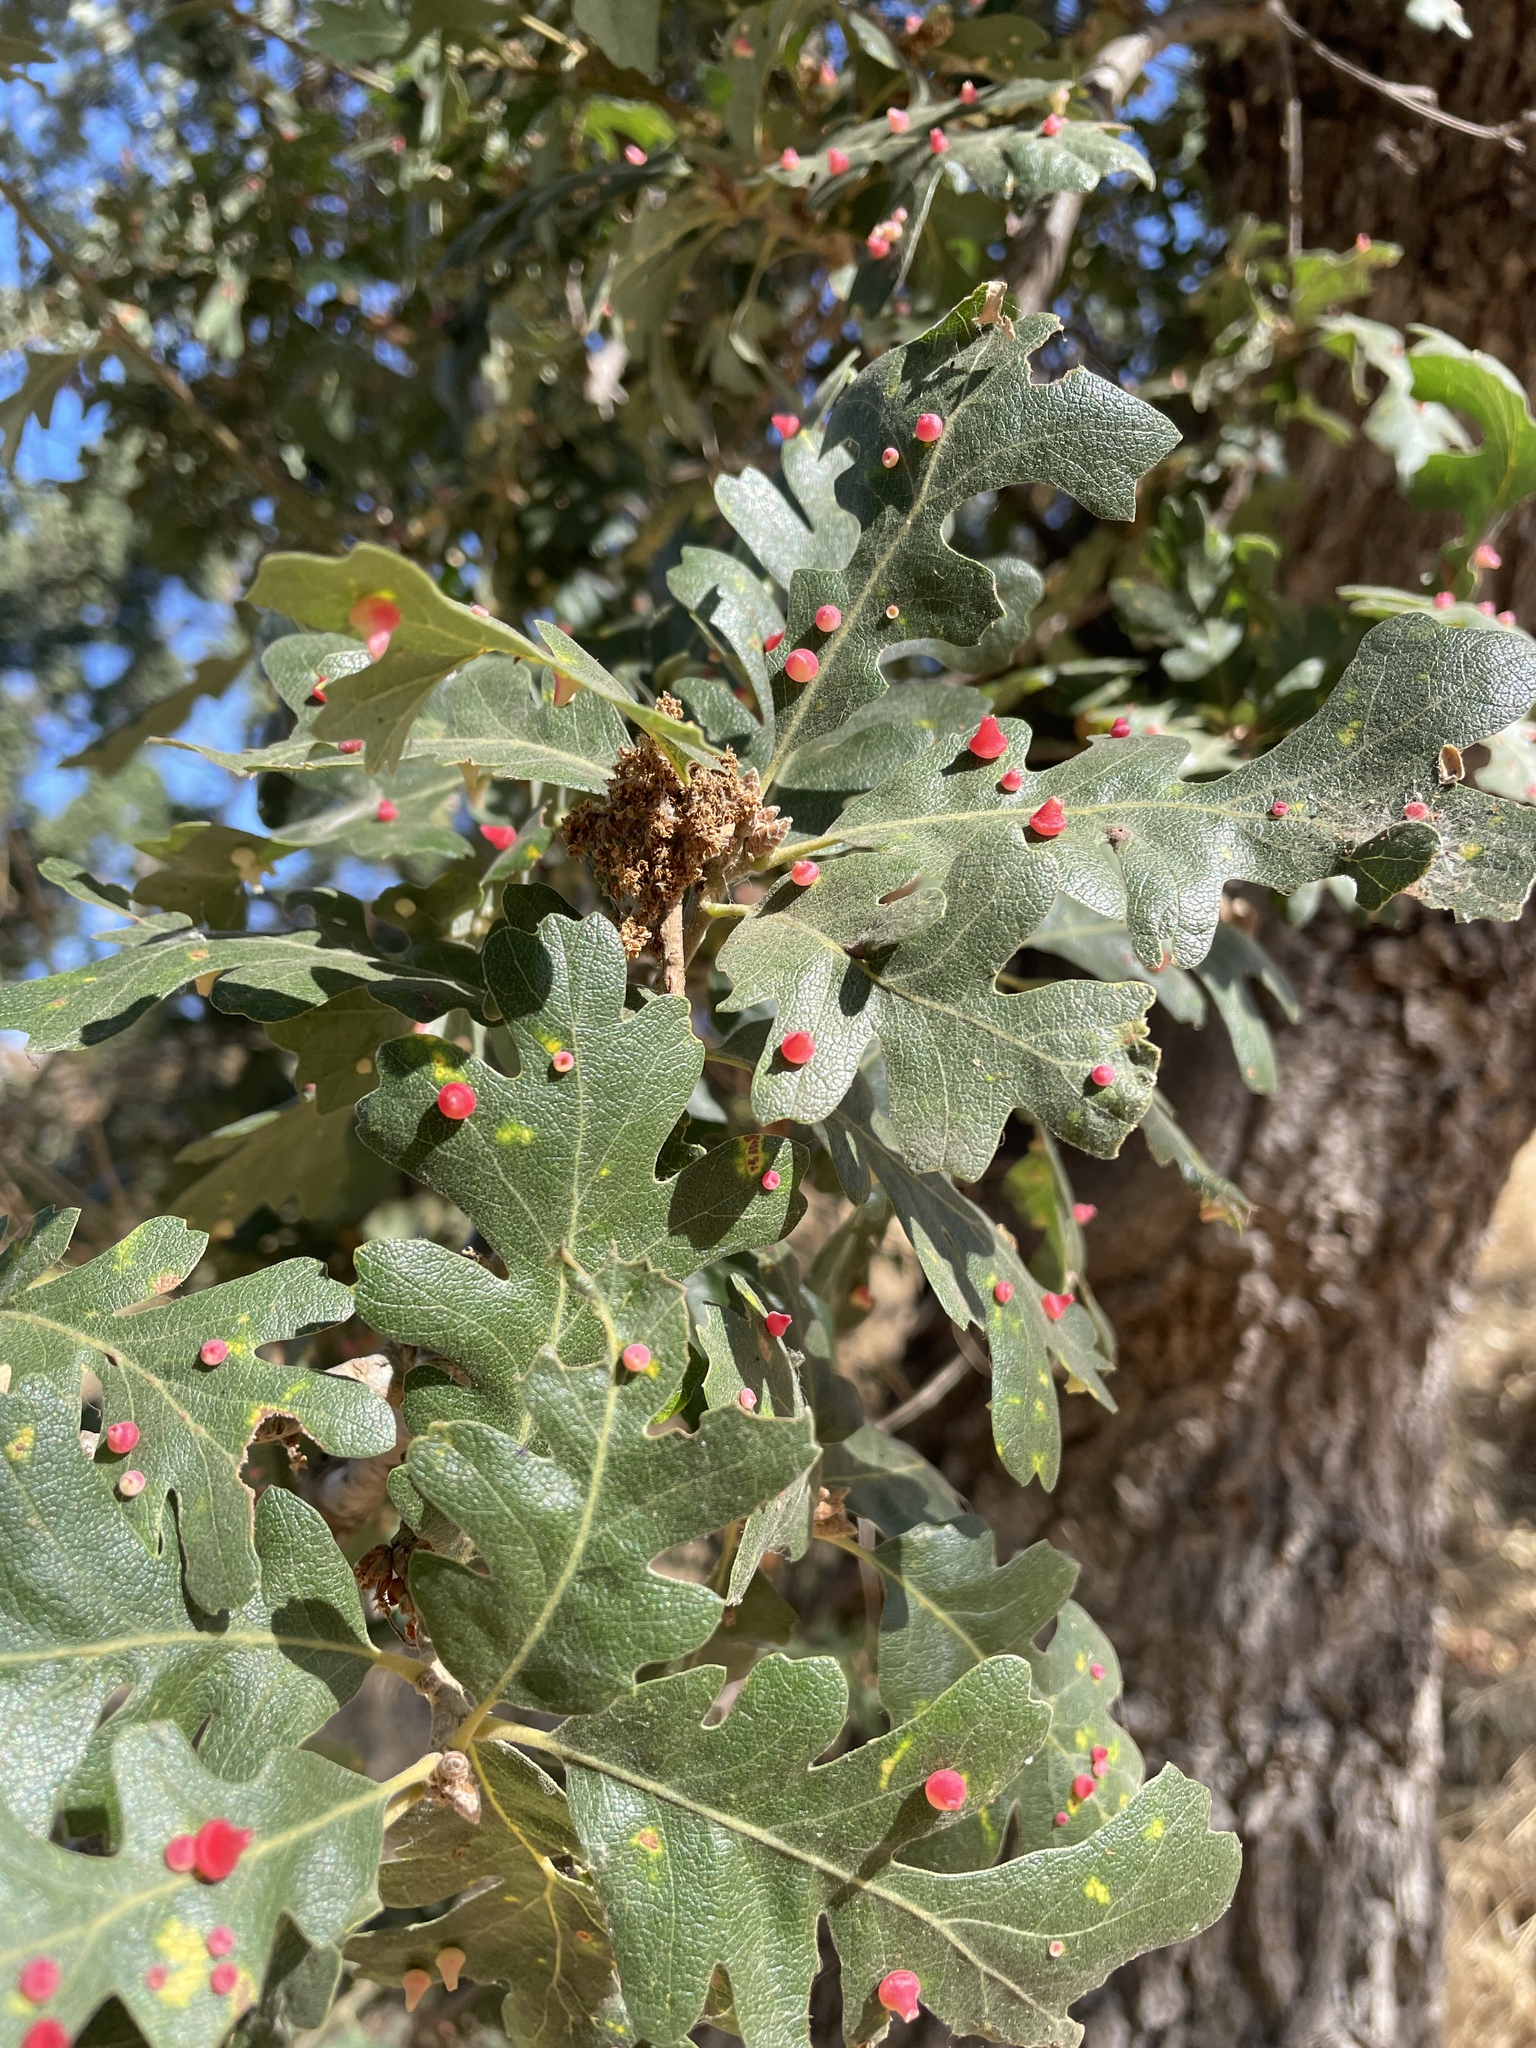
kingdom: Animalia
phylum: Arthropoda
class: Insecta
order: Hymenoptera
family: Cynipidae
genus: Andricus
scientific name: Andricus
